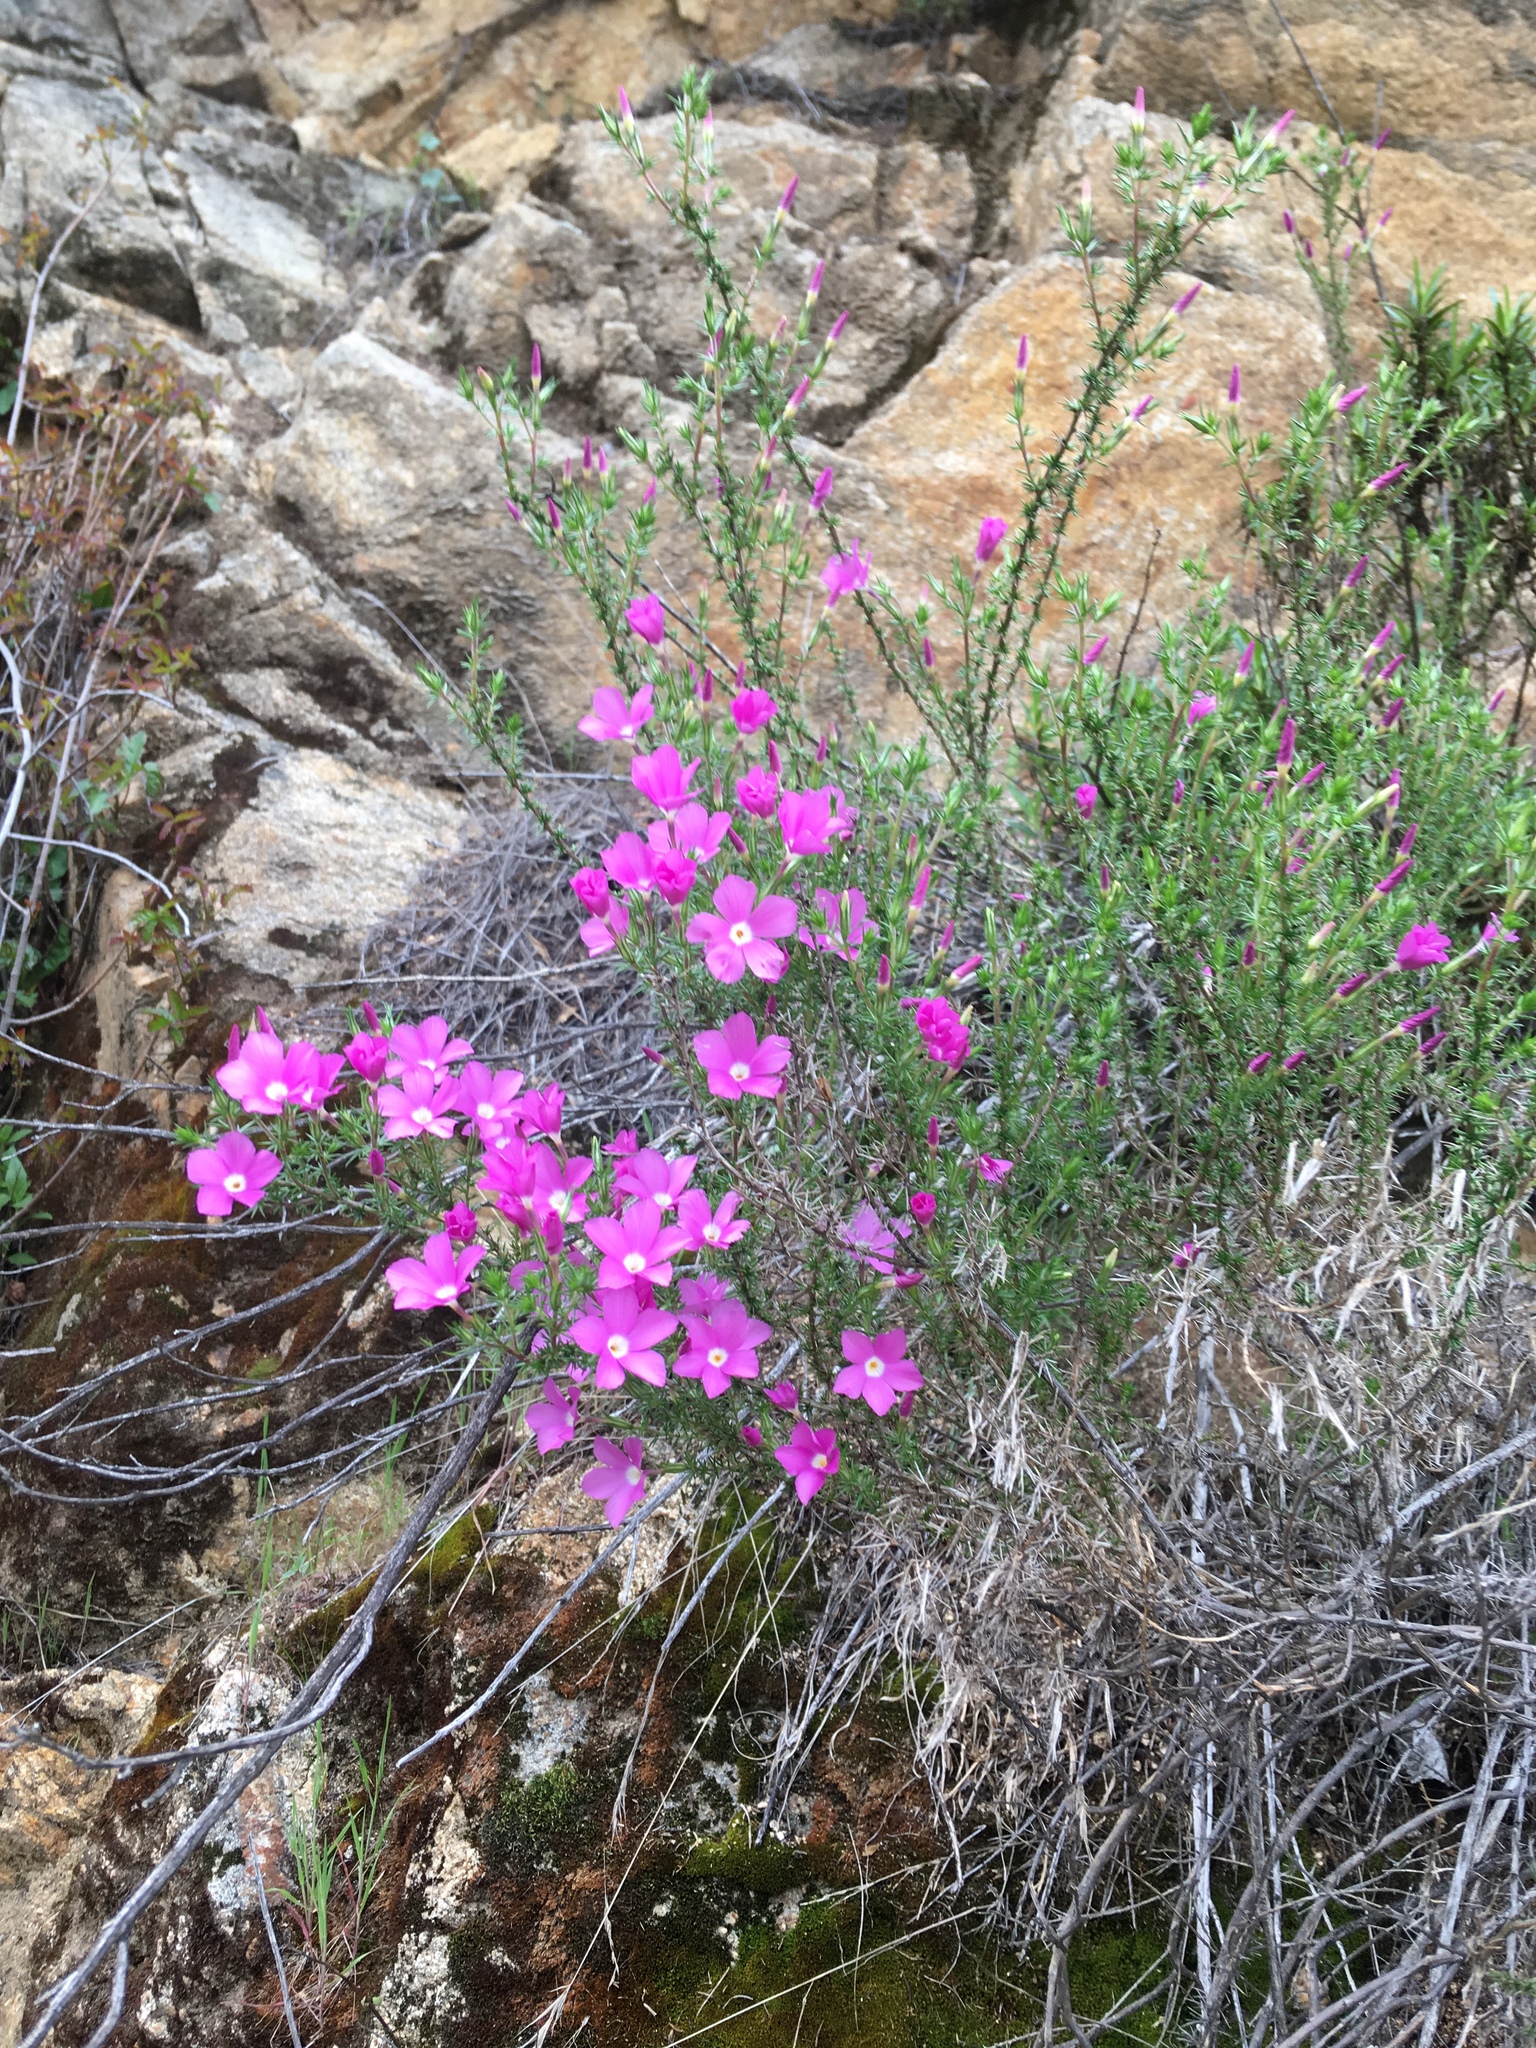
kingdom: Plantae
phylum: Tracheophyta
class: Magnoliopsida
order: Ericales
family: Polemoniaceae
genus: Linanthus
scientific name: Linanthus californicus
